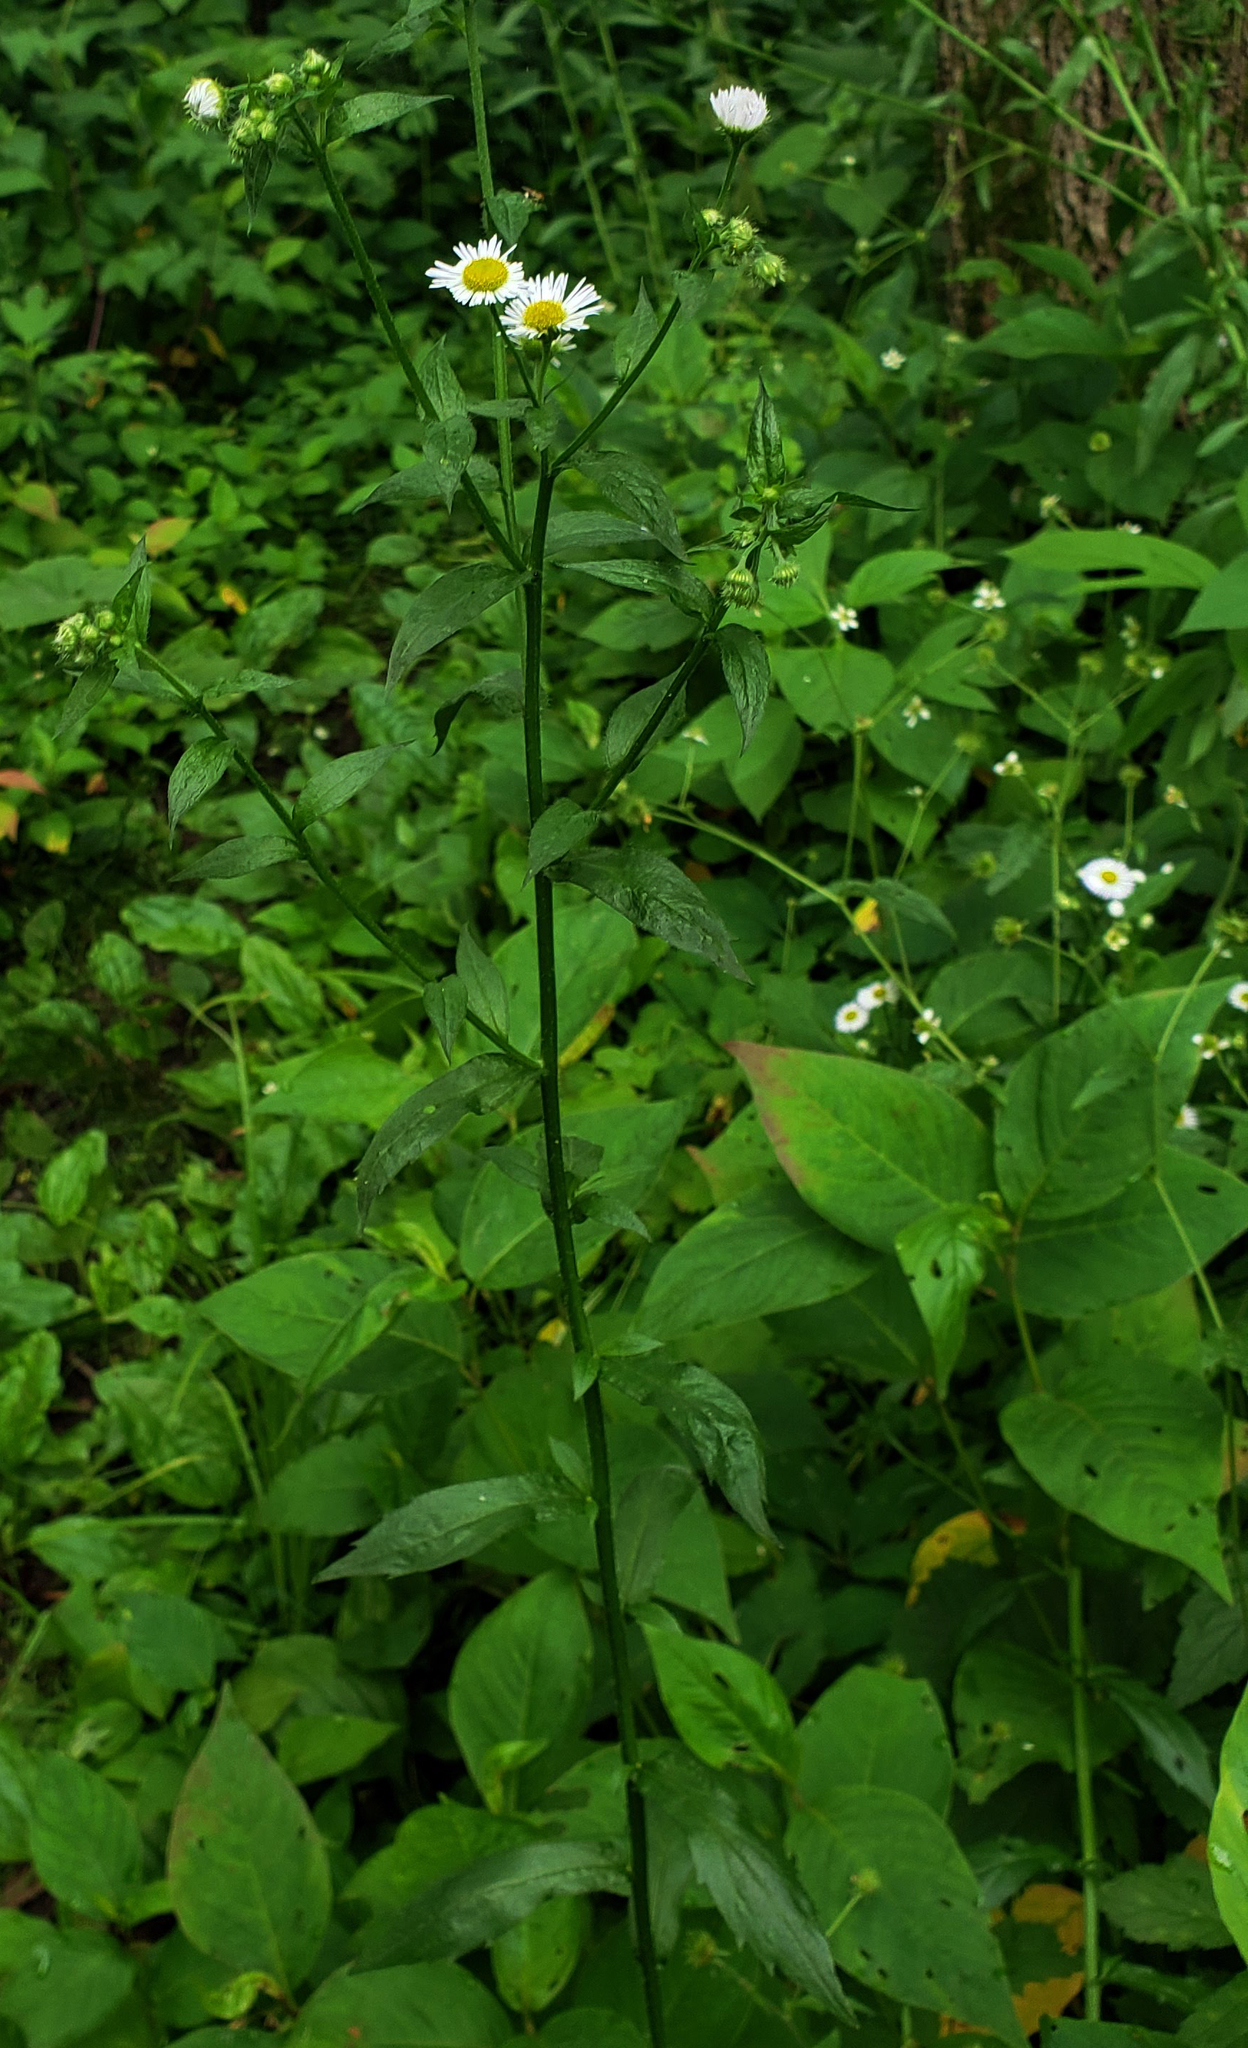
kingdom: Plantae
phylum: Tracheophyta
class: Magnoliopsida
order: Asterales
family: Asteraceae
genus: Erigeron
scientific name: Erigeron annuus
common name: Tall fleabane
